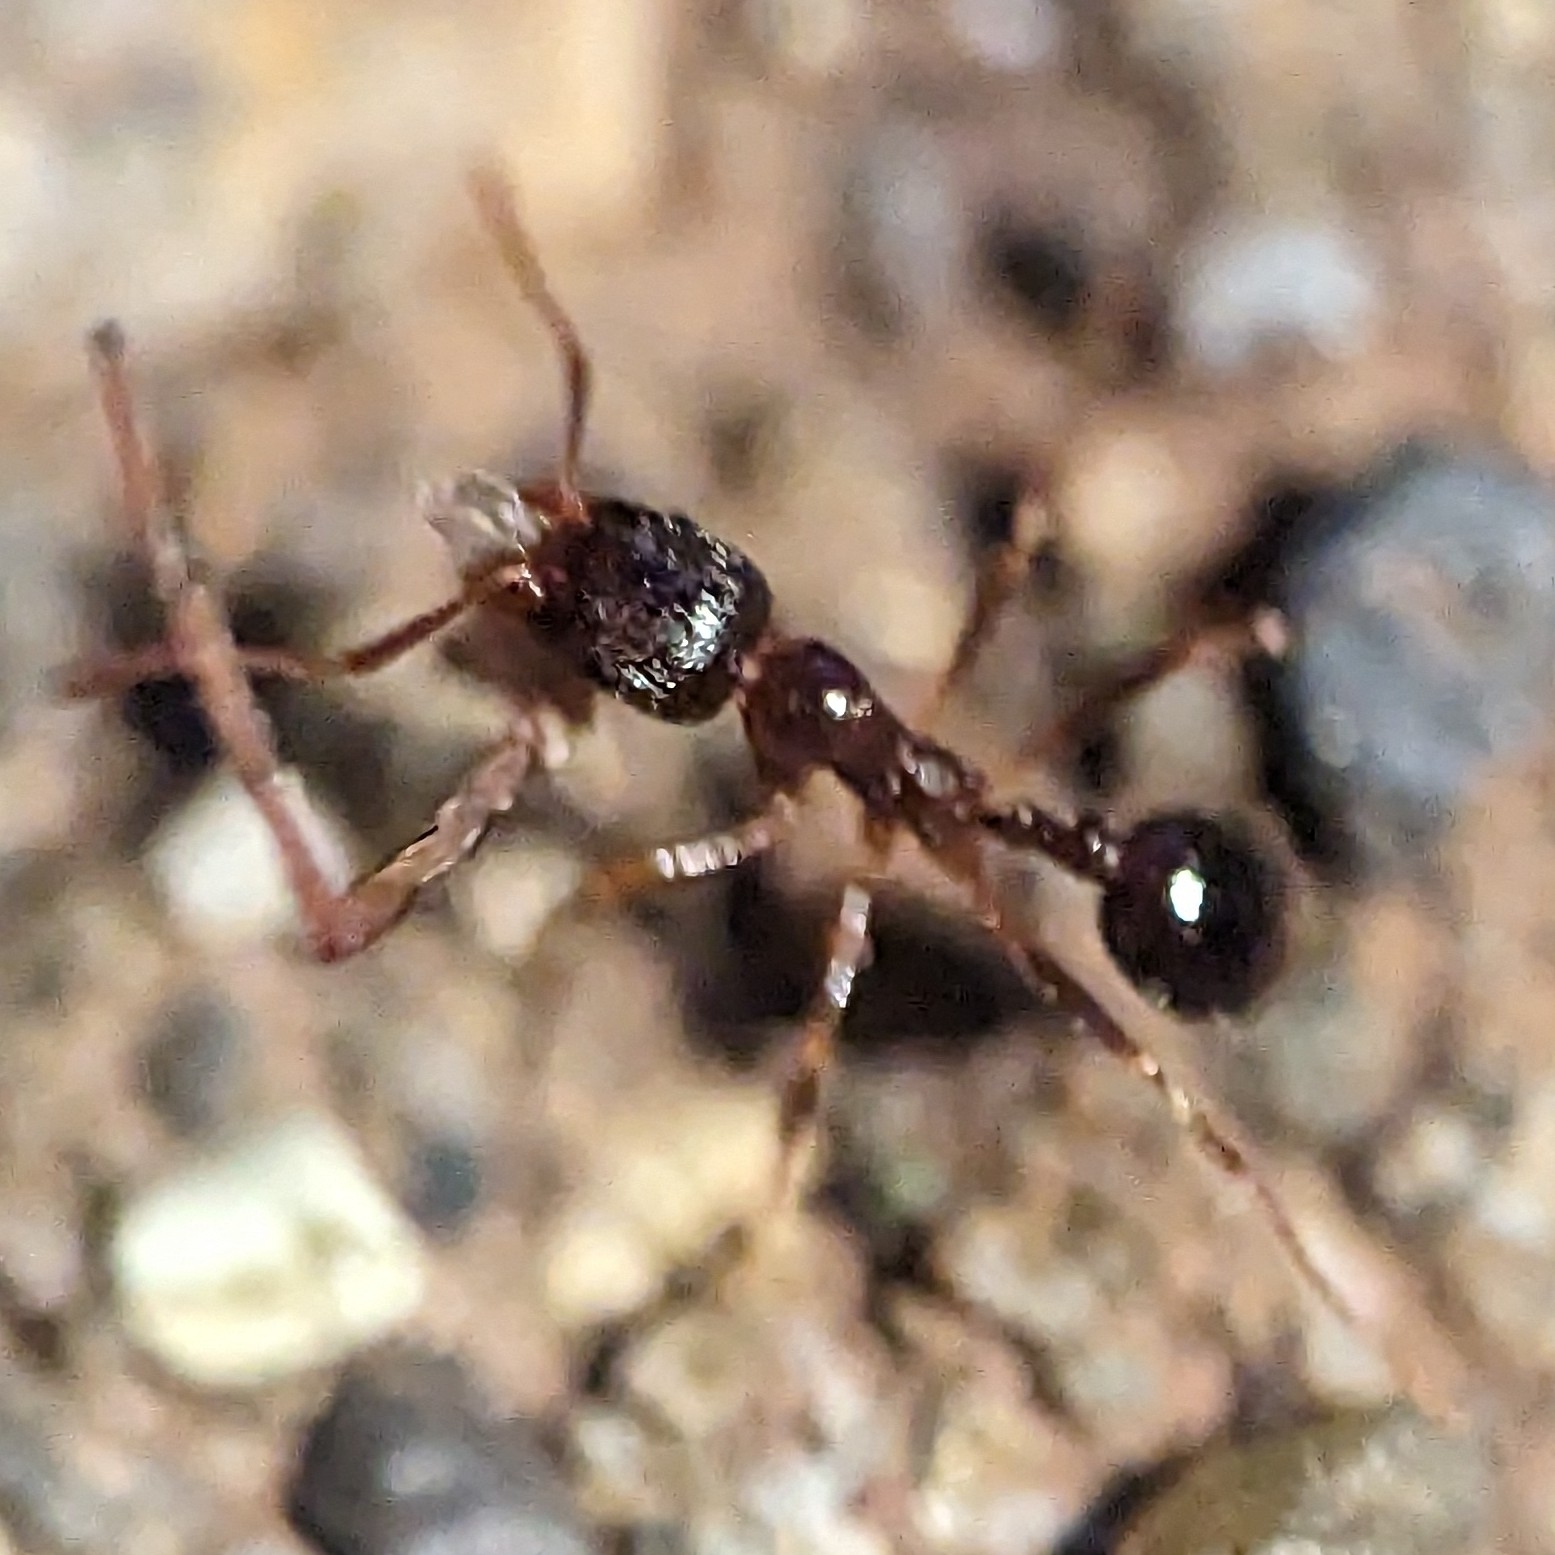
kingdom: Animalia
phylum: Arthropoda
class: Insecta
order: Hymenoptera
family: Formicidae
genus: Aphaenogaster
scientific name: Aphaenogaster occidentalis
